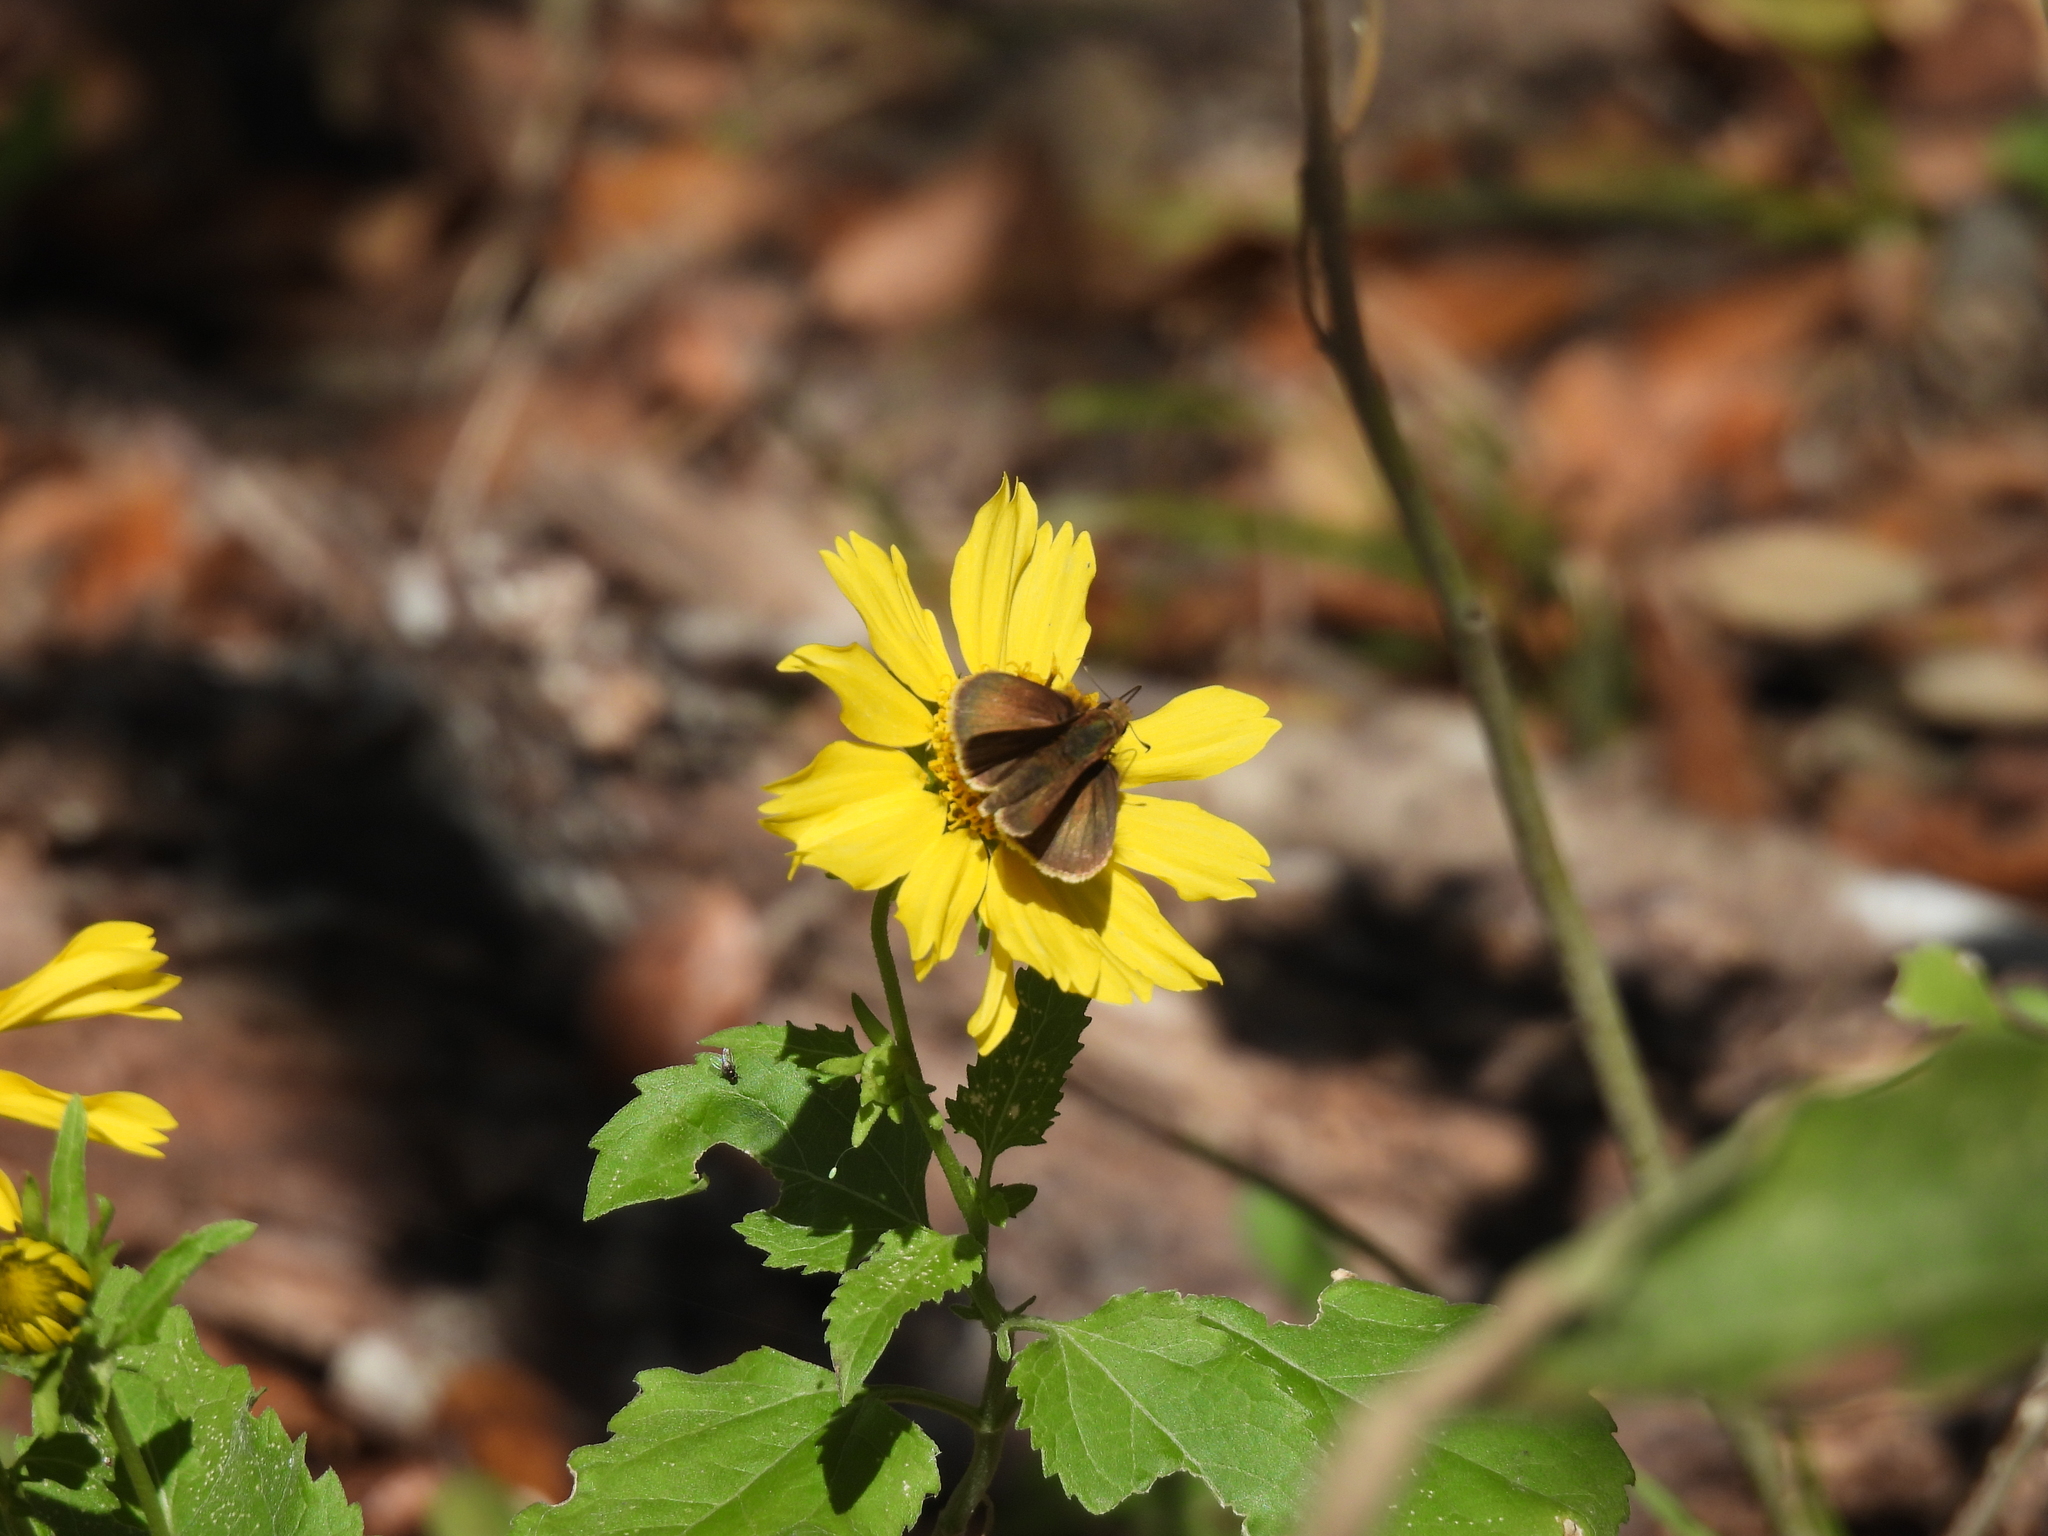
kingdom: Animalia
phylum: Arthropoda
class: Insecta
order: Lepidoptera
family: Hesperiidae
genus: Lerema
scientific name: Lerema accius
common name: Clouded skipper
